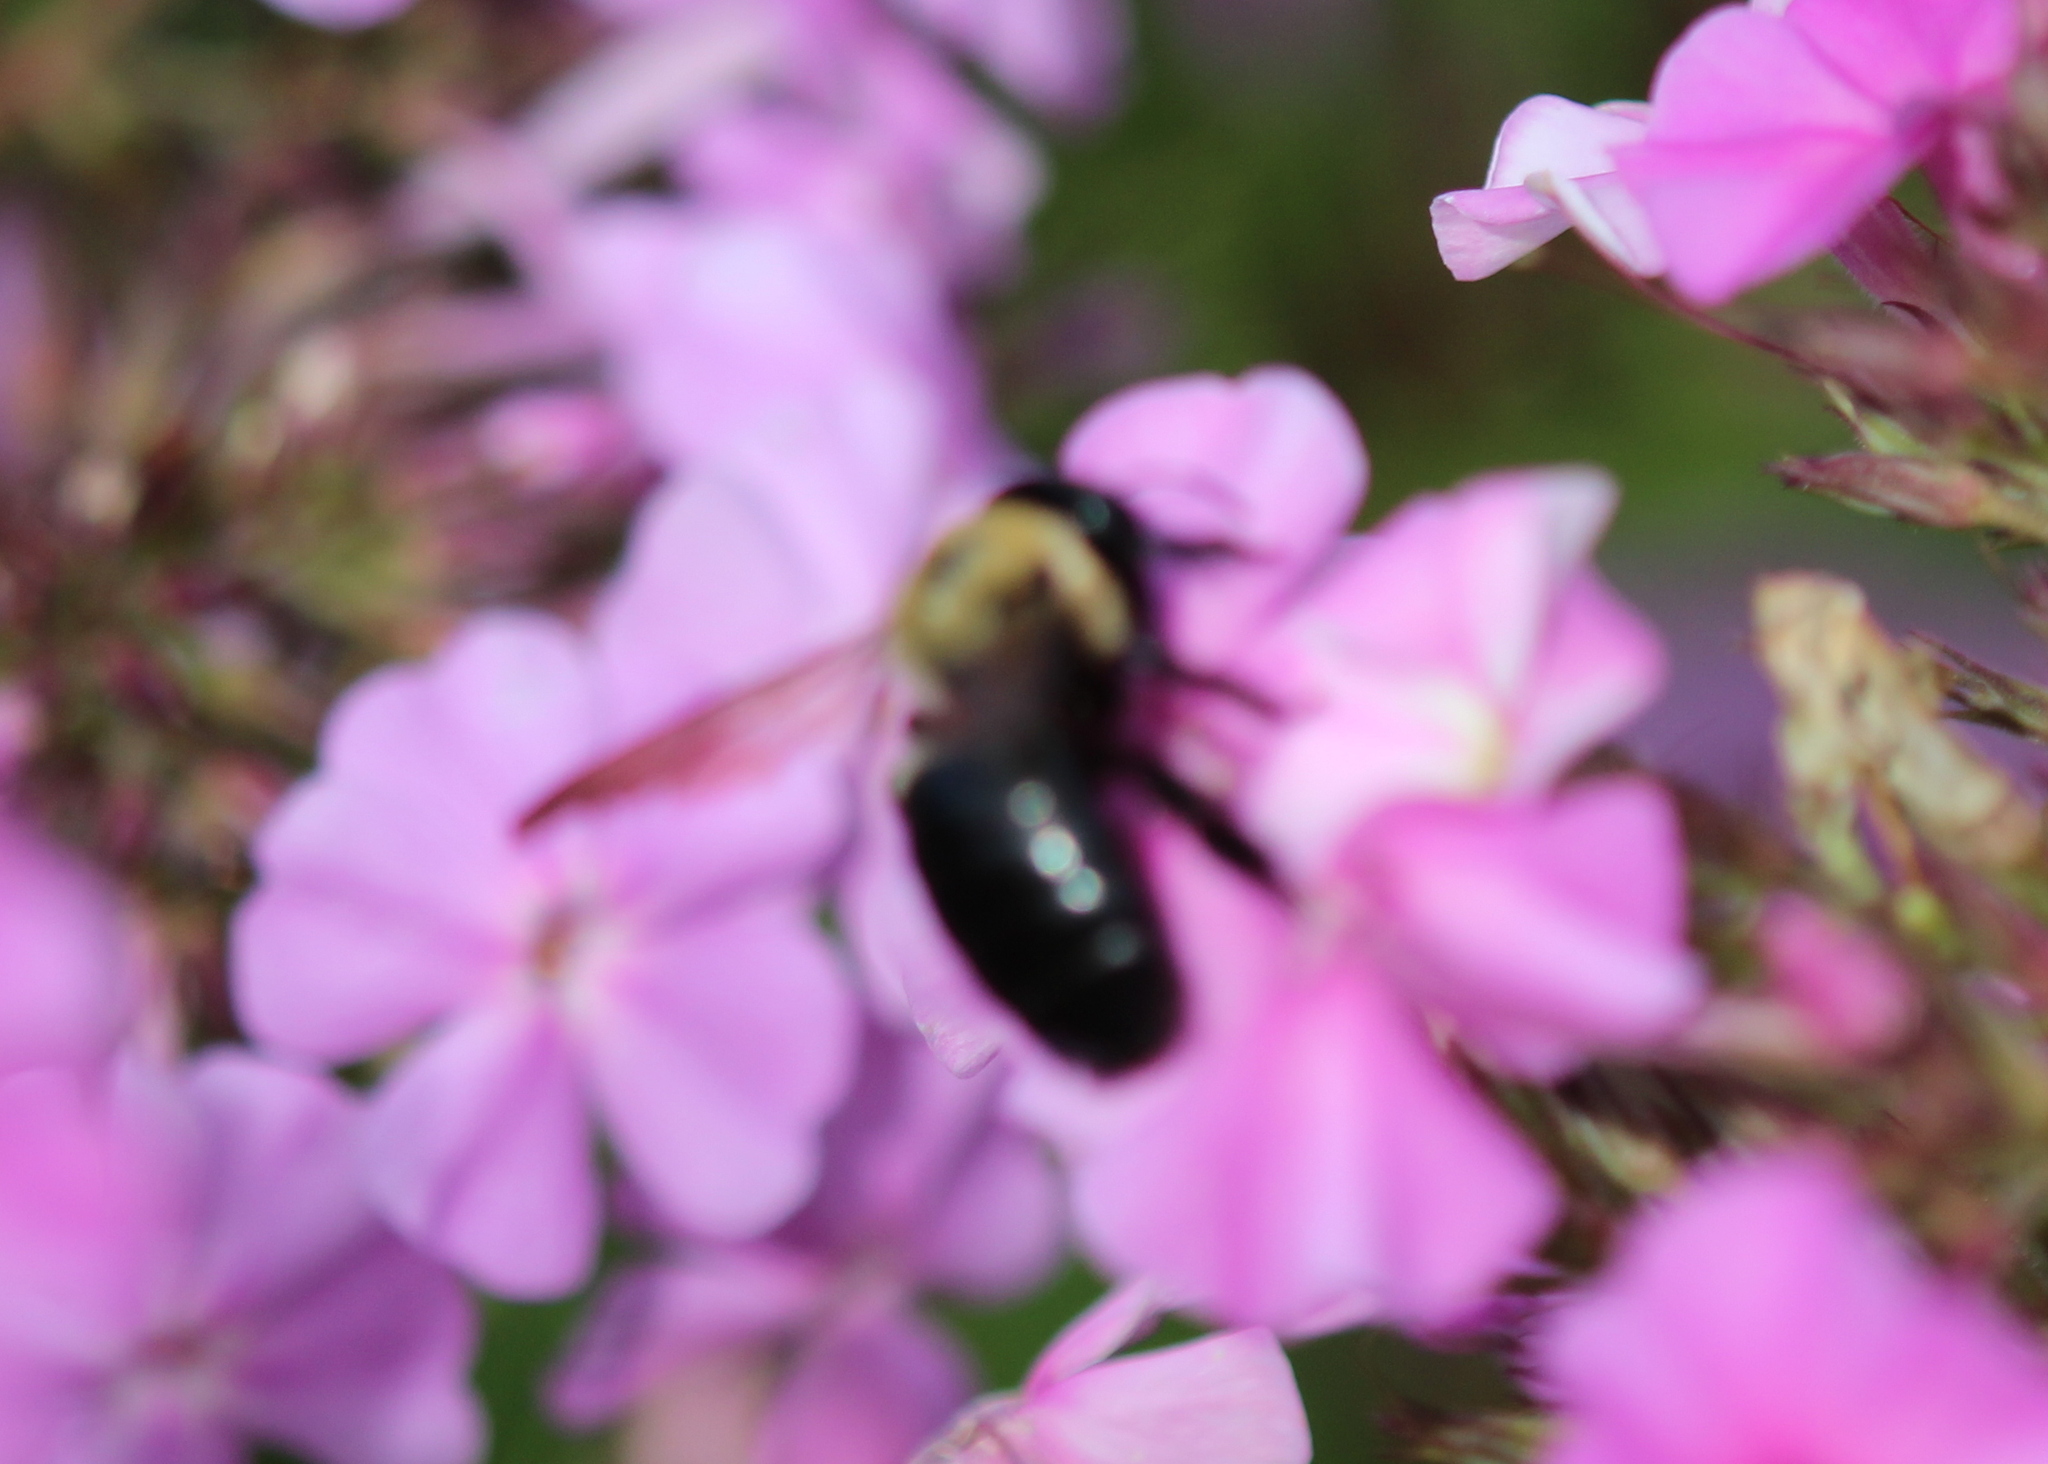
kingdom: Animalia
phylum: Arthropoda
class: Insecta
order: Hymenoptera
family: Apidae
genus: Xylocopa
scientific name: Xylocopa virginica
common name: Carpenter bee
